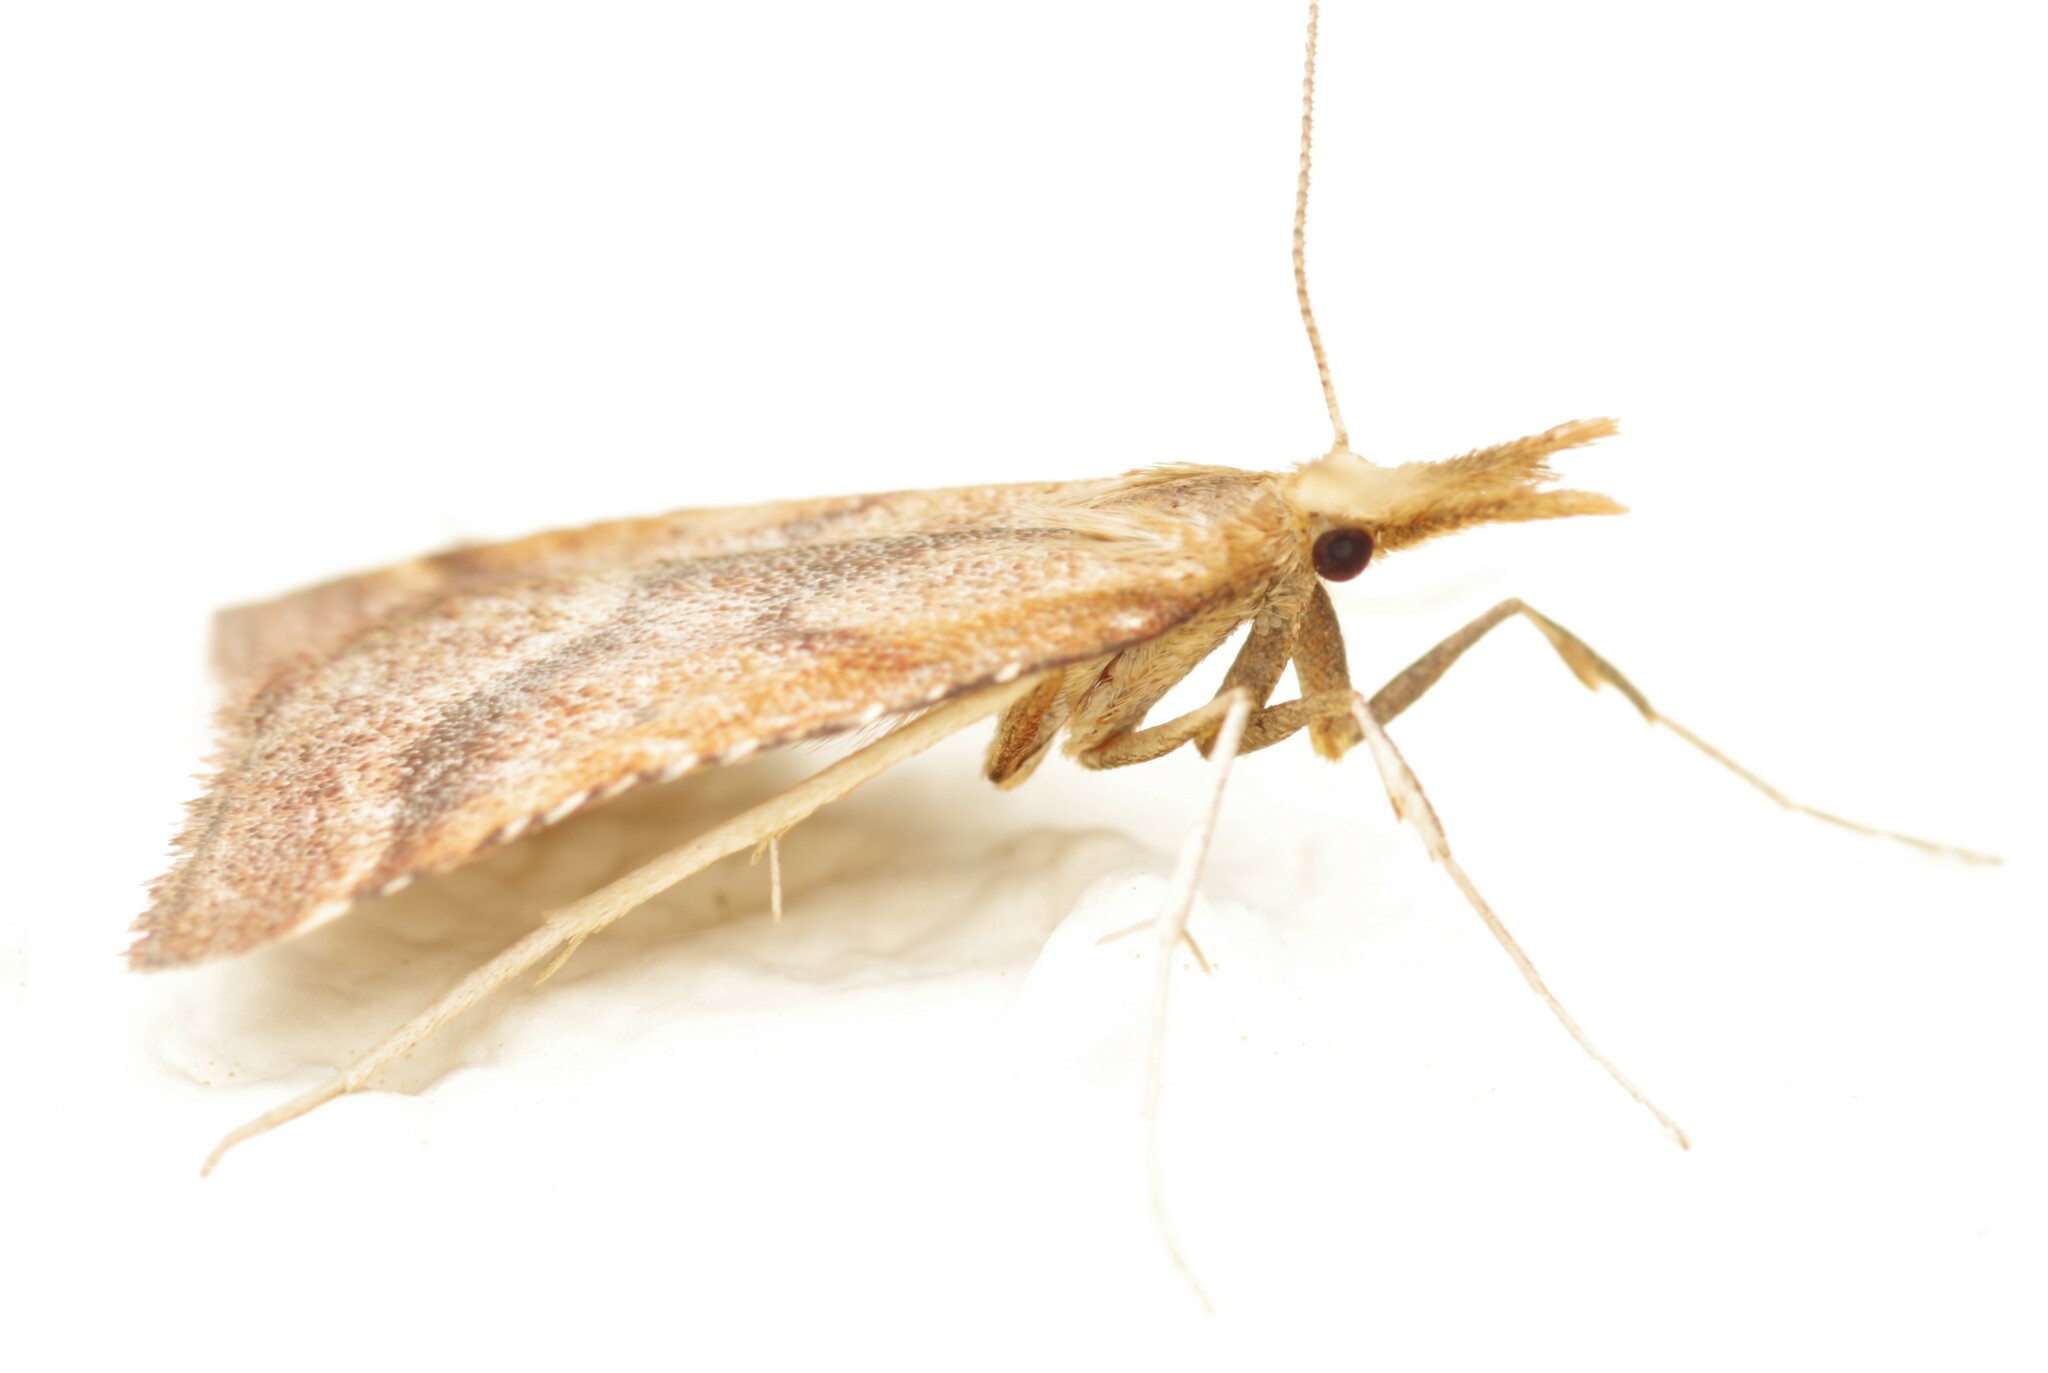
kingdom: Animalia
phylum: Arthropoda
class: Insecta
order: Lepidoptera
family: Pyralidae
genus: Synaphe
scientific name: Synaphe punctalis
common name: Long-legged tabby
